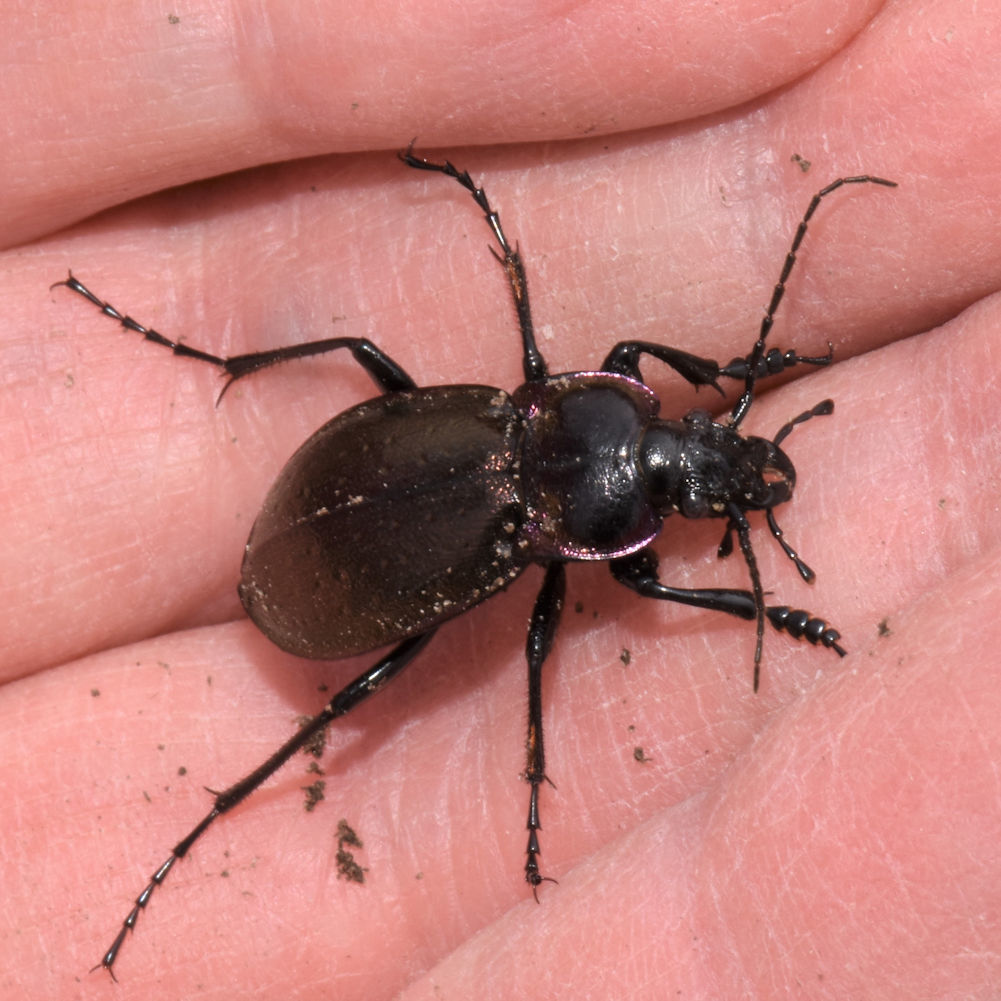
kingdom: Animalia
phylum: Arthropoda
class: Insecta
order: Coleoptera
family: Carabidae
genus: Carabus
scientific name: Carabus nemoralis
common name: European ground beetle
